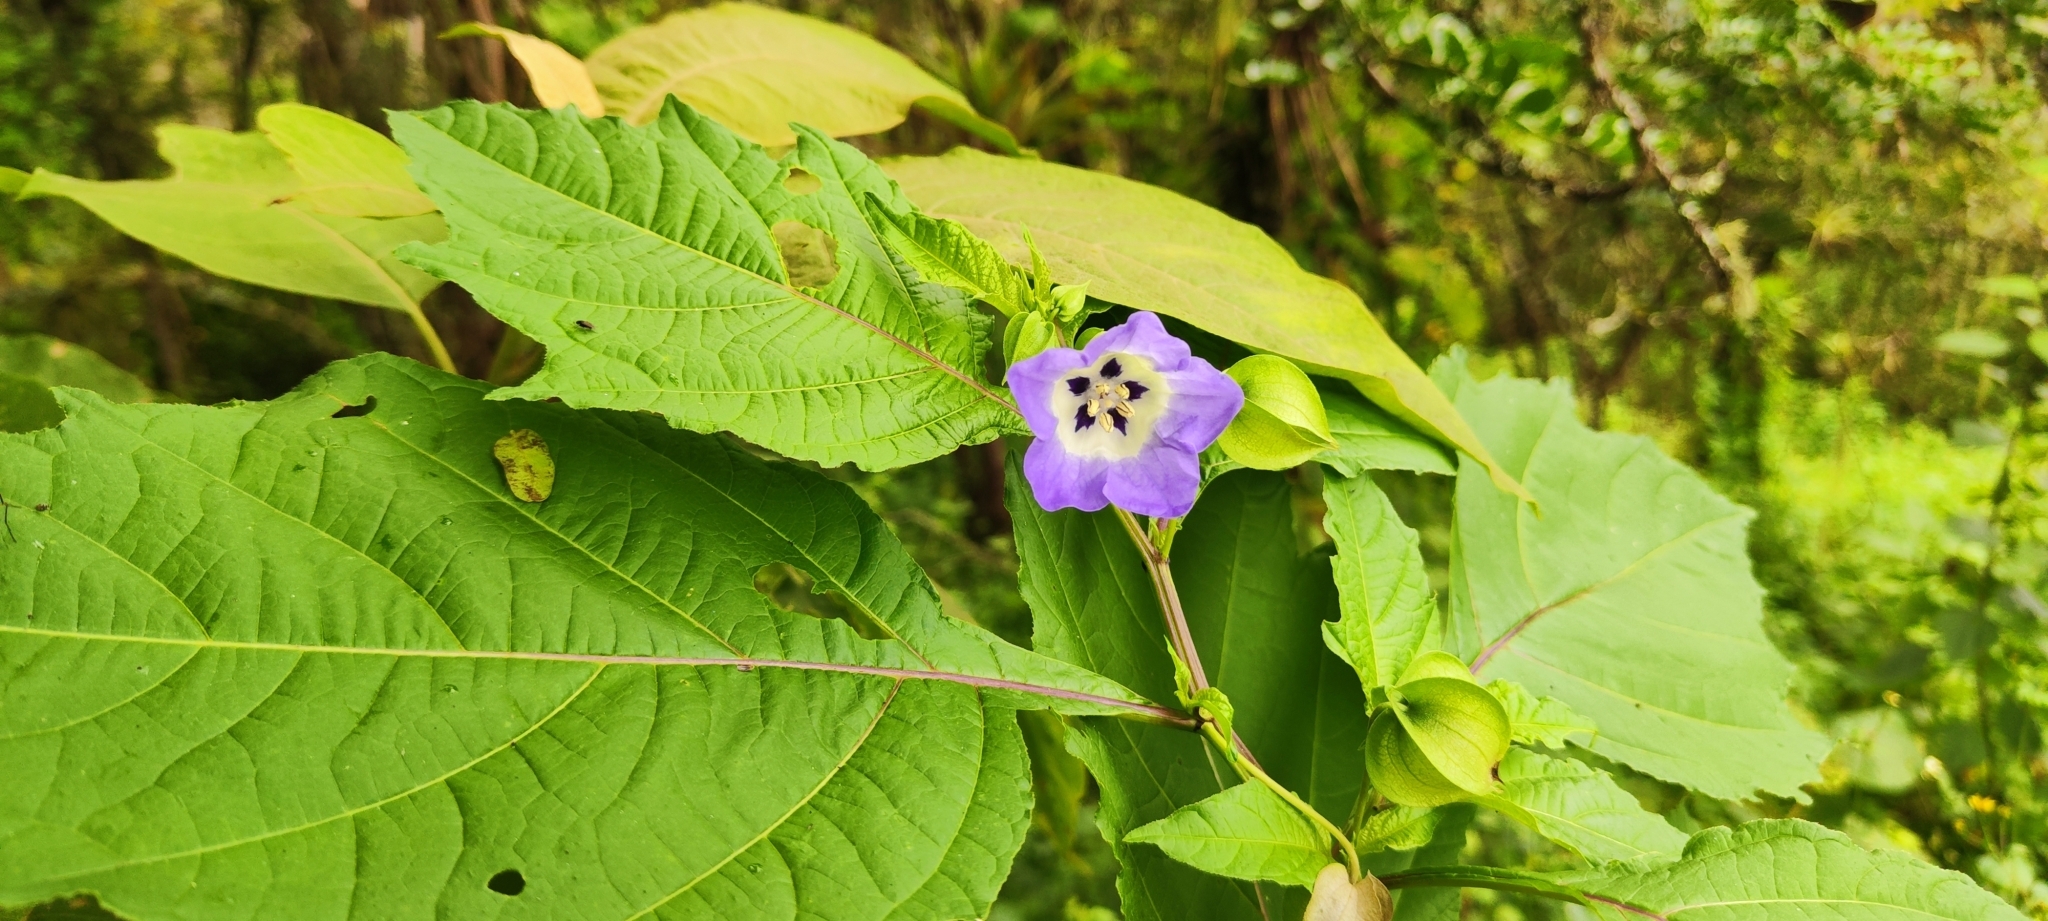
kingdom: Plantae
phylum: Tracheophyta
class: Magnoliopsida
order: Solanales
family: Solanaceae
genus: Nicandra
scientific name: Nicandra physalodes
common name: Apple-of-peru
